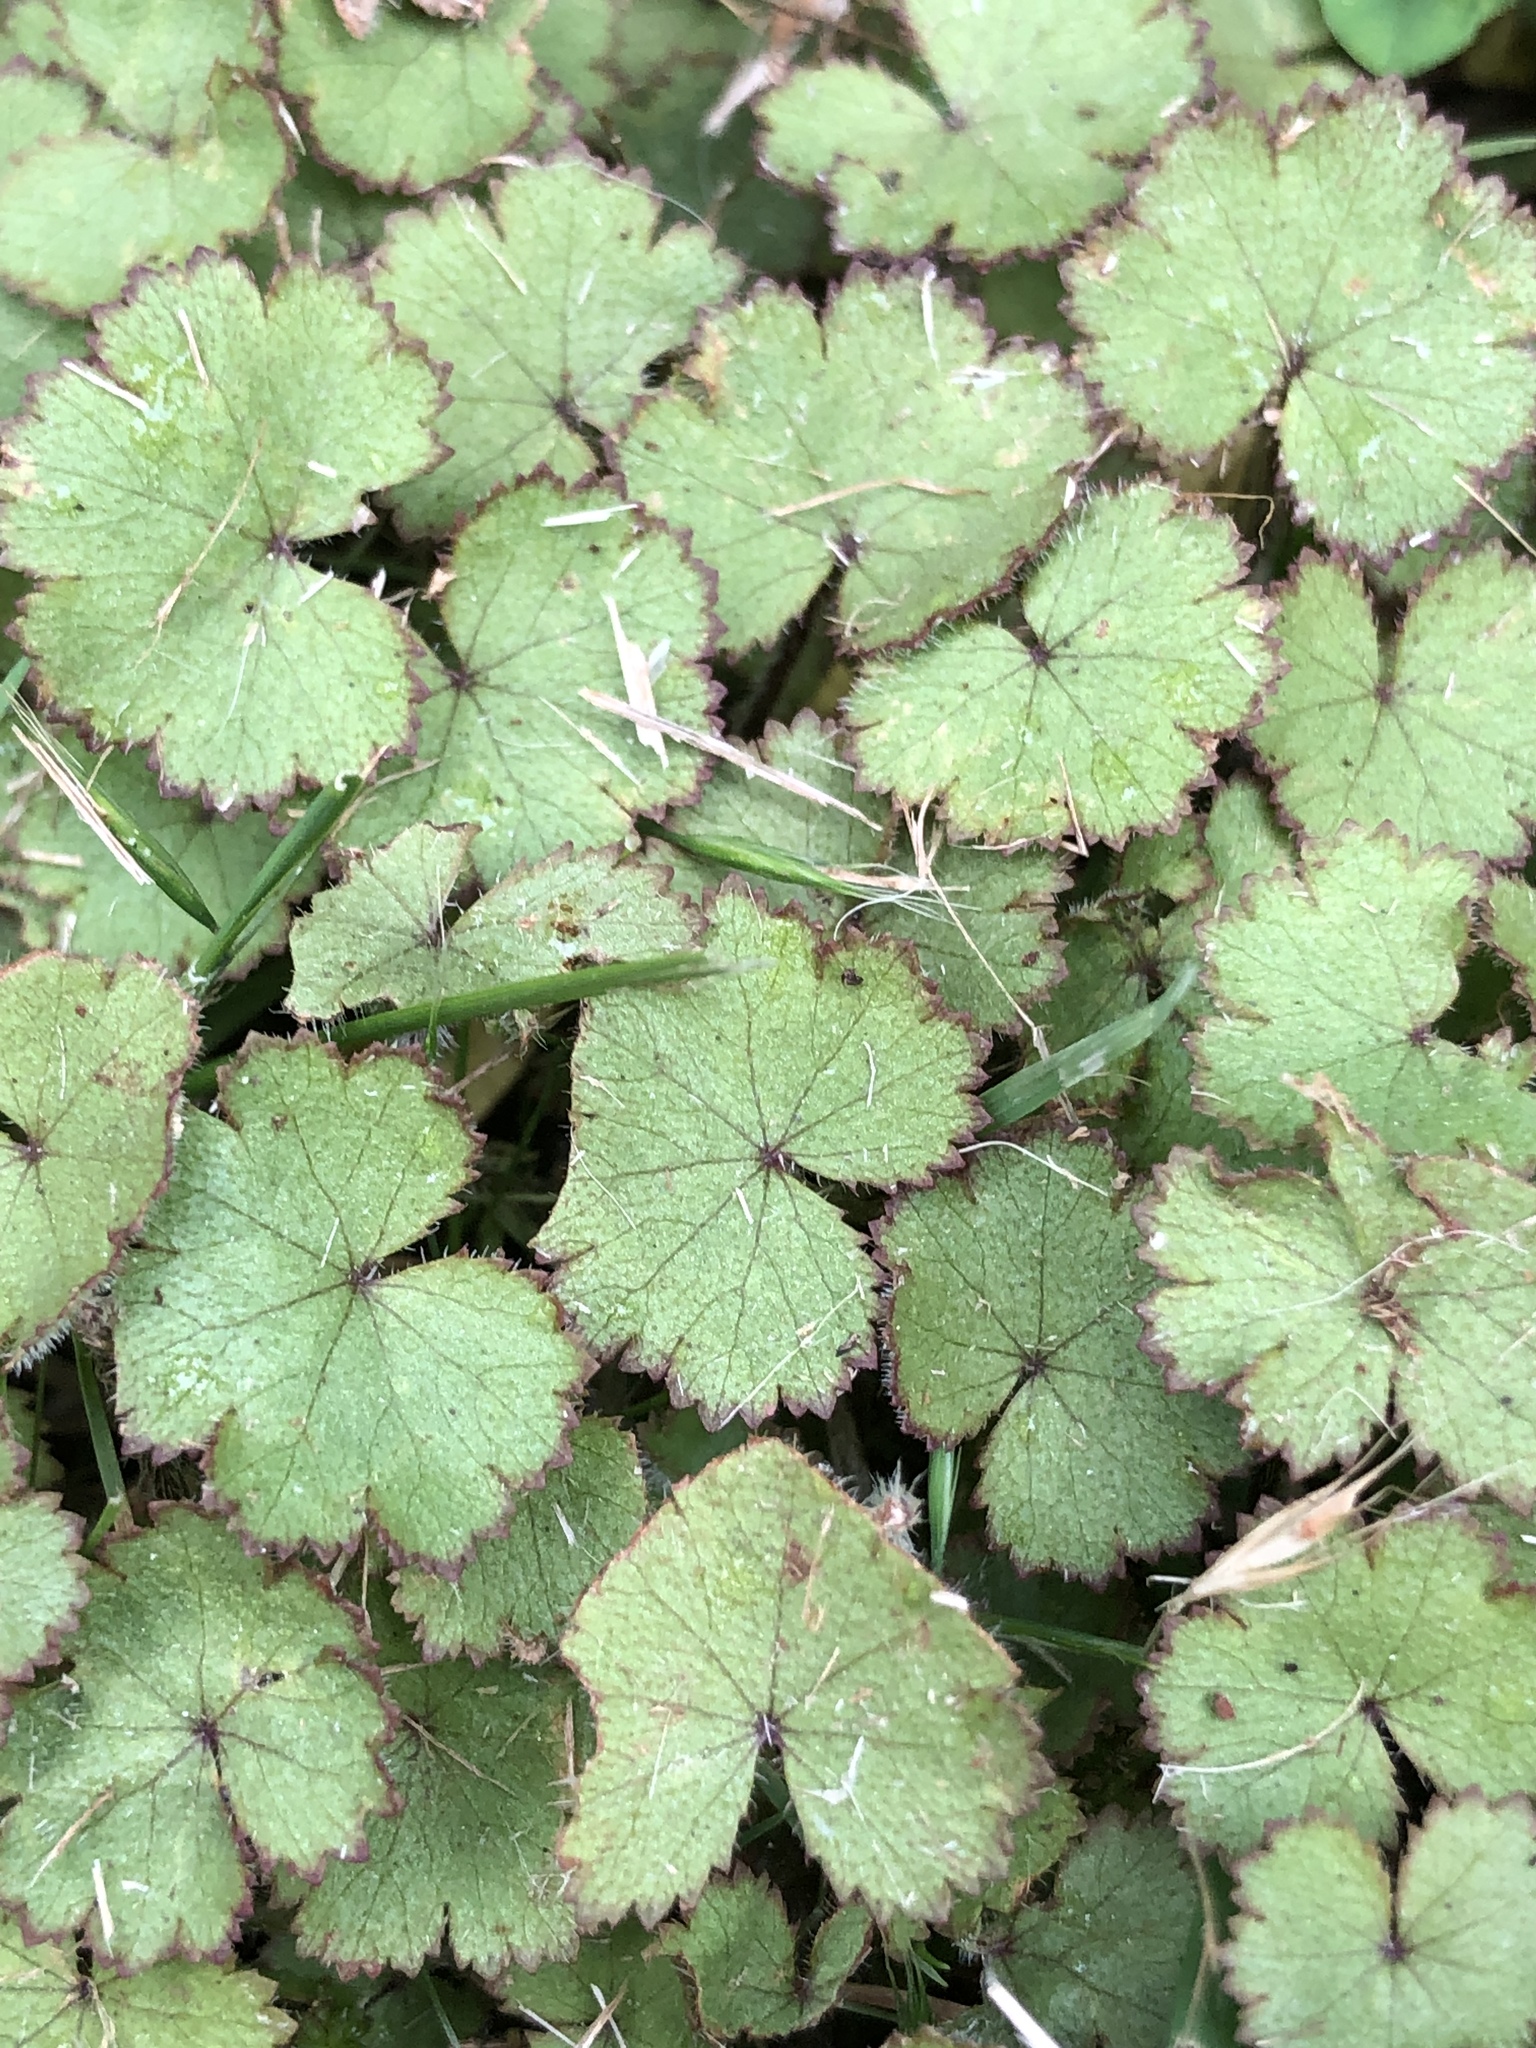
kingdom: Plantae
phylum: Tracheophyta
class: Magnoliopsida
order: Apiales
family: Araliaceae
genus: Hydrocotyle
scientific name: Hydrocotyle moschata
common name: Hairy pennywort
